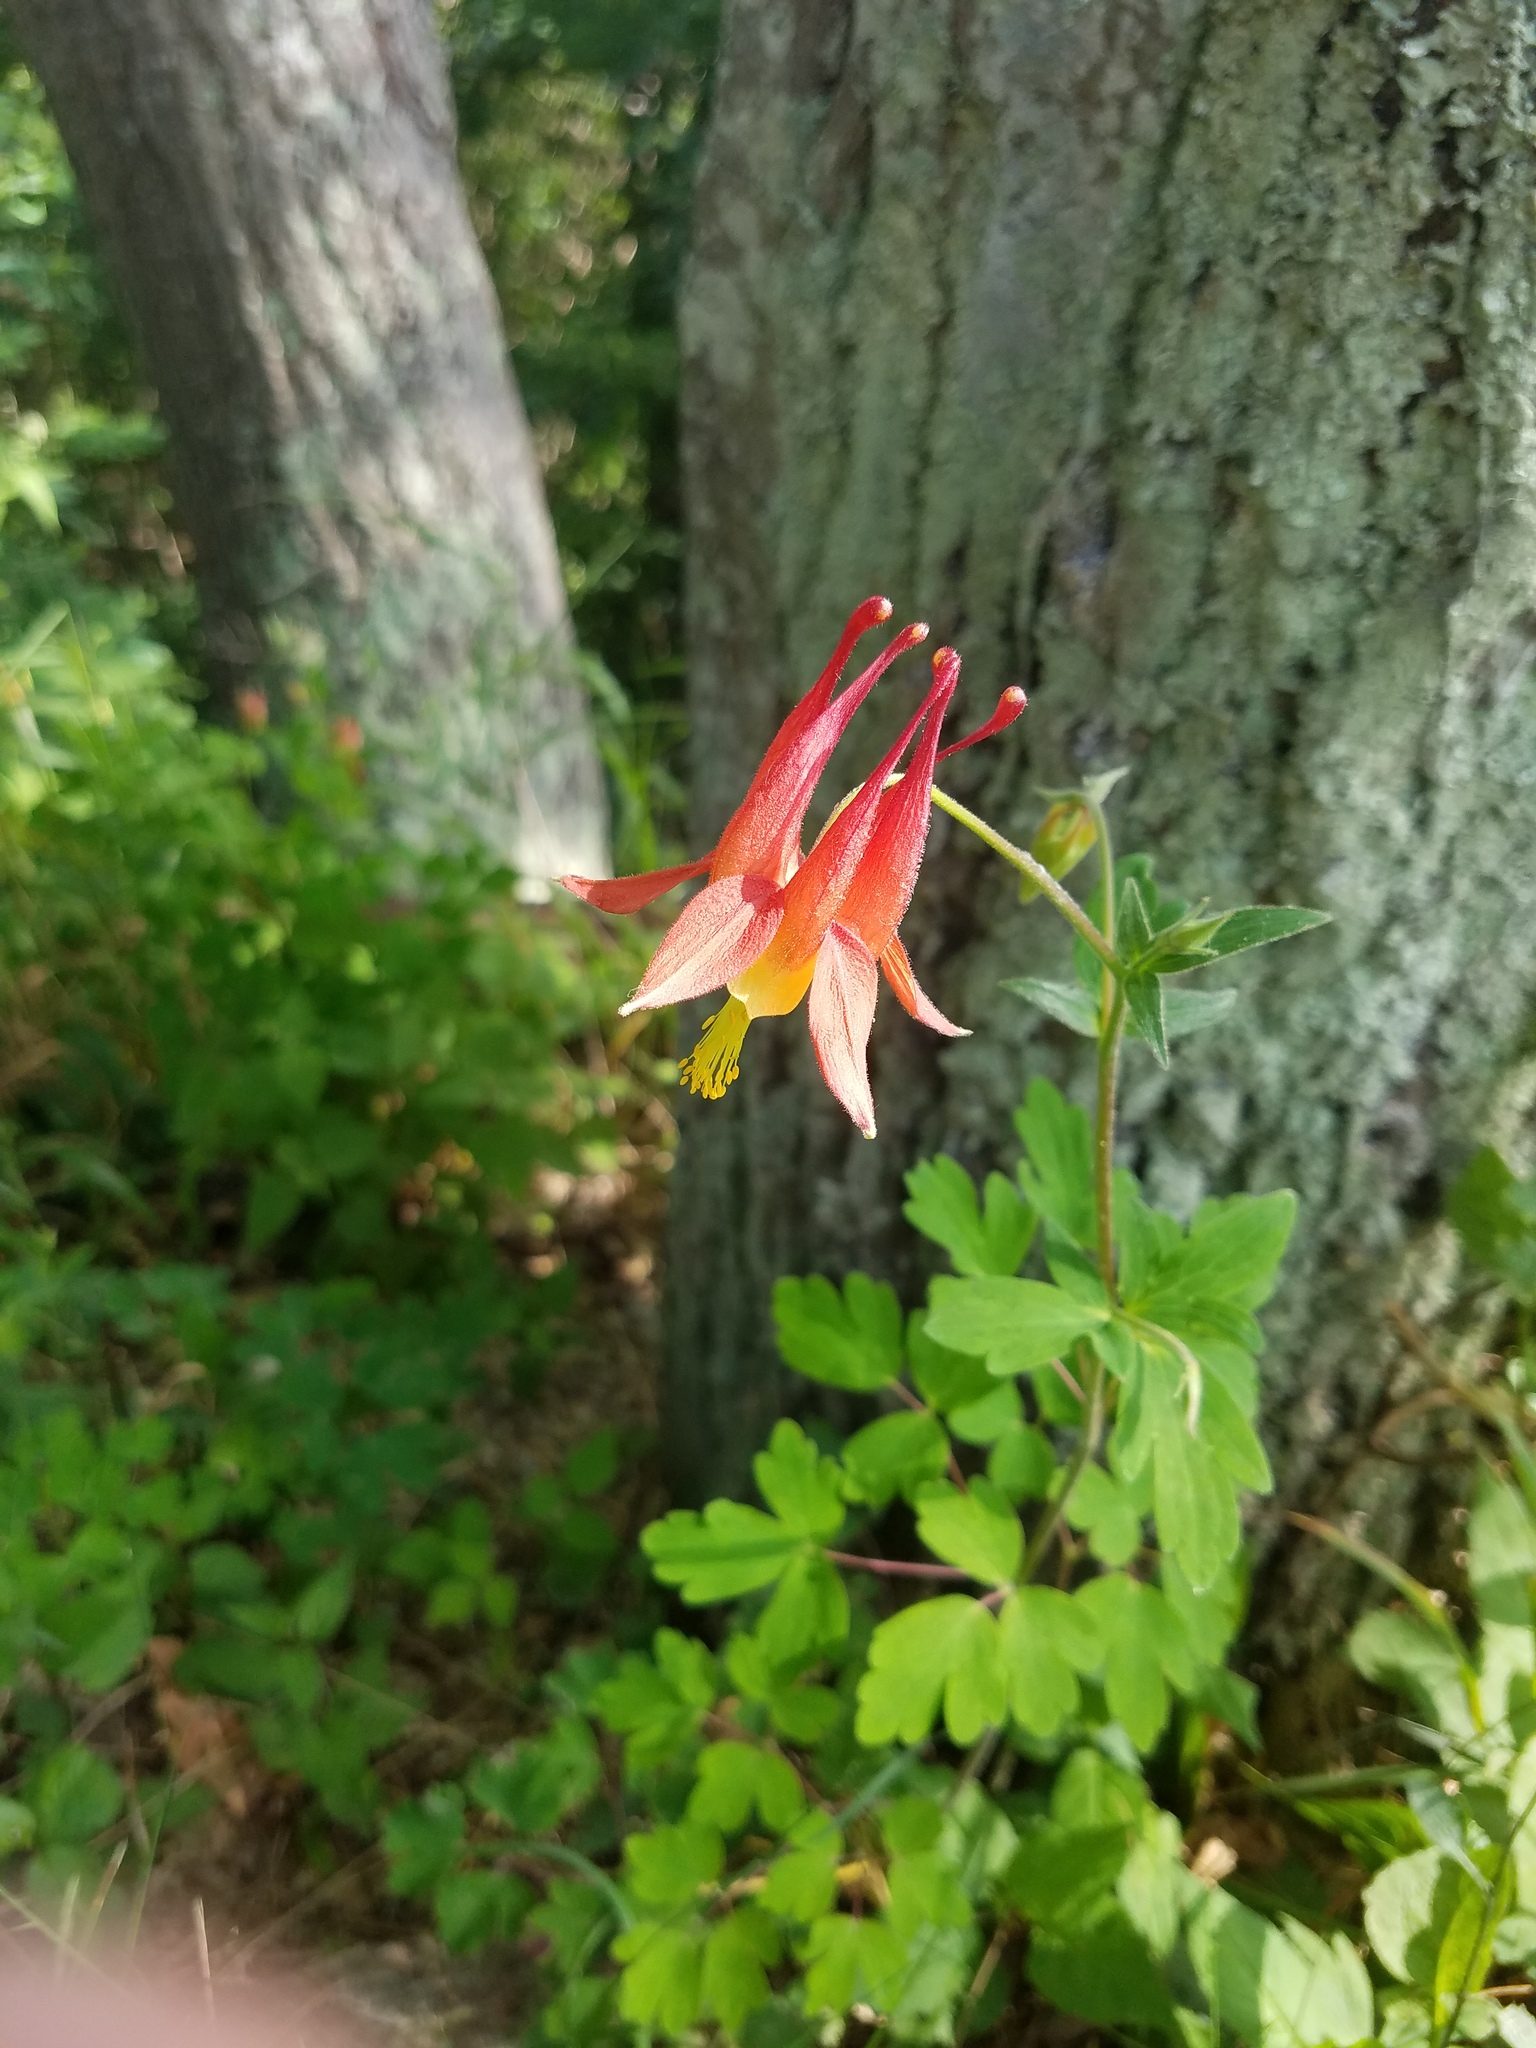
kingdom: Plantae
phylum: Tracheophyta
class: Magnoliopsida
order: Ranunculales
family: Ranunculaceae
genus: Aquilegia
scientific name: Aquilegia canadensis
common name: American columbine
